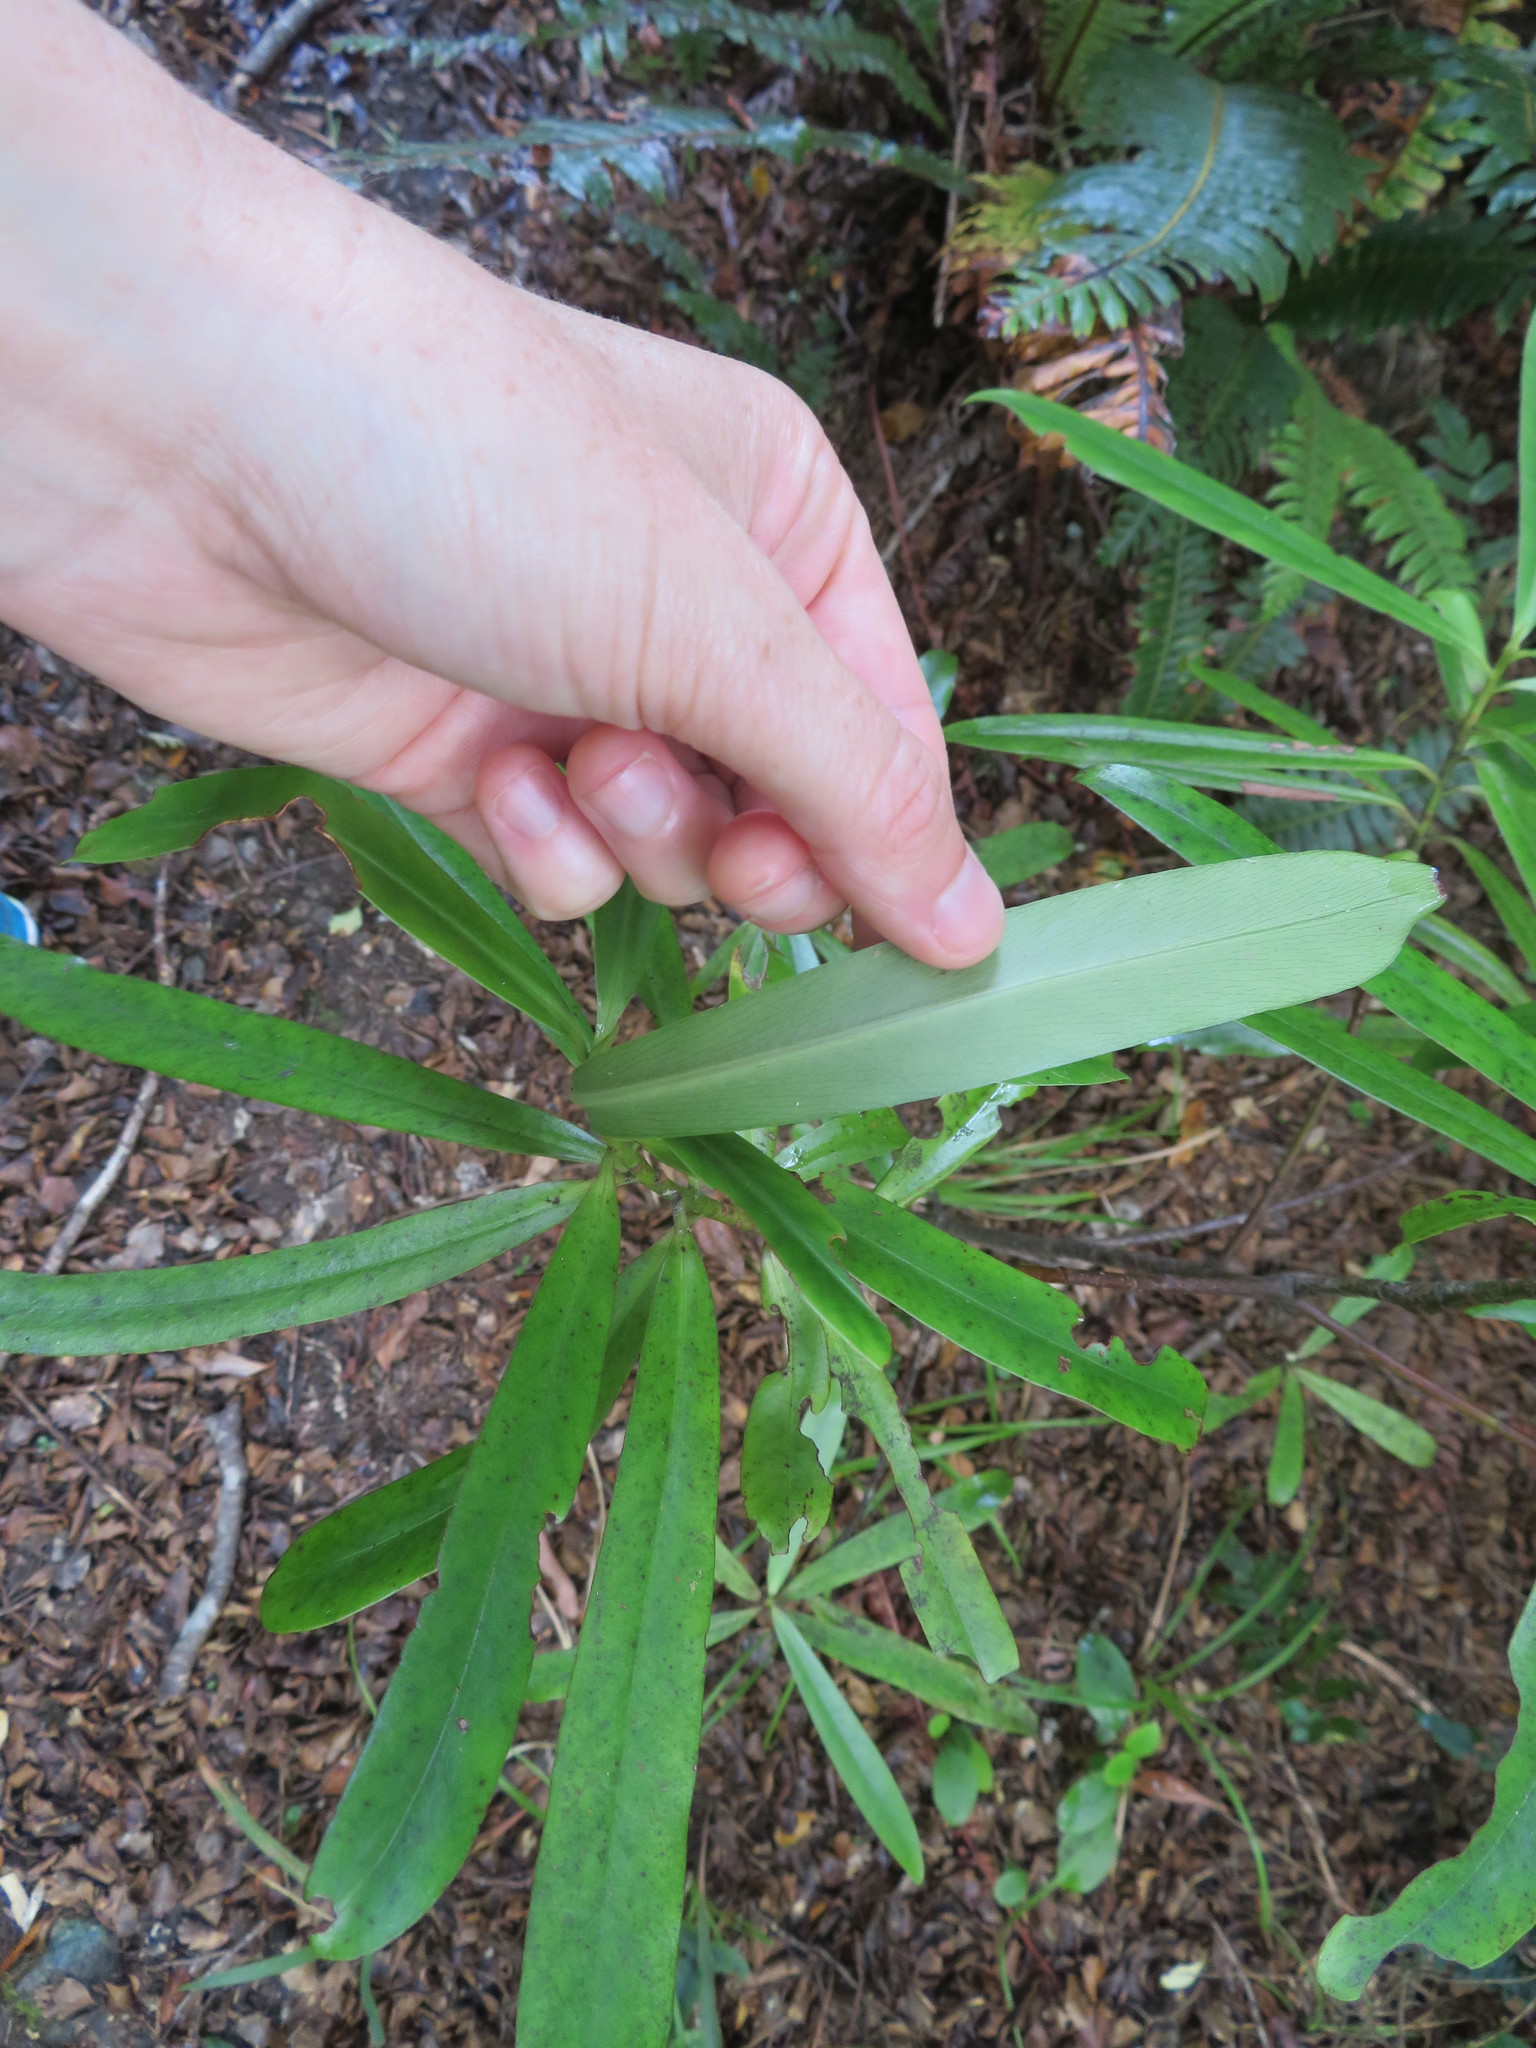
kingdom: Plantae
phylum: Tracheophyta
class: Magnoliopsida
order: Ericales
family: Primulaceae
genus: Myrsine
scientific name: Myrsine salicina
